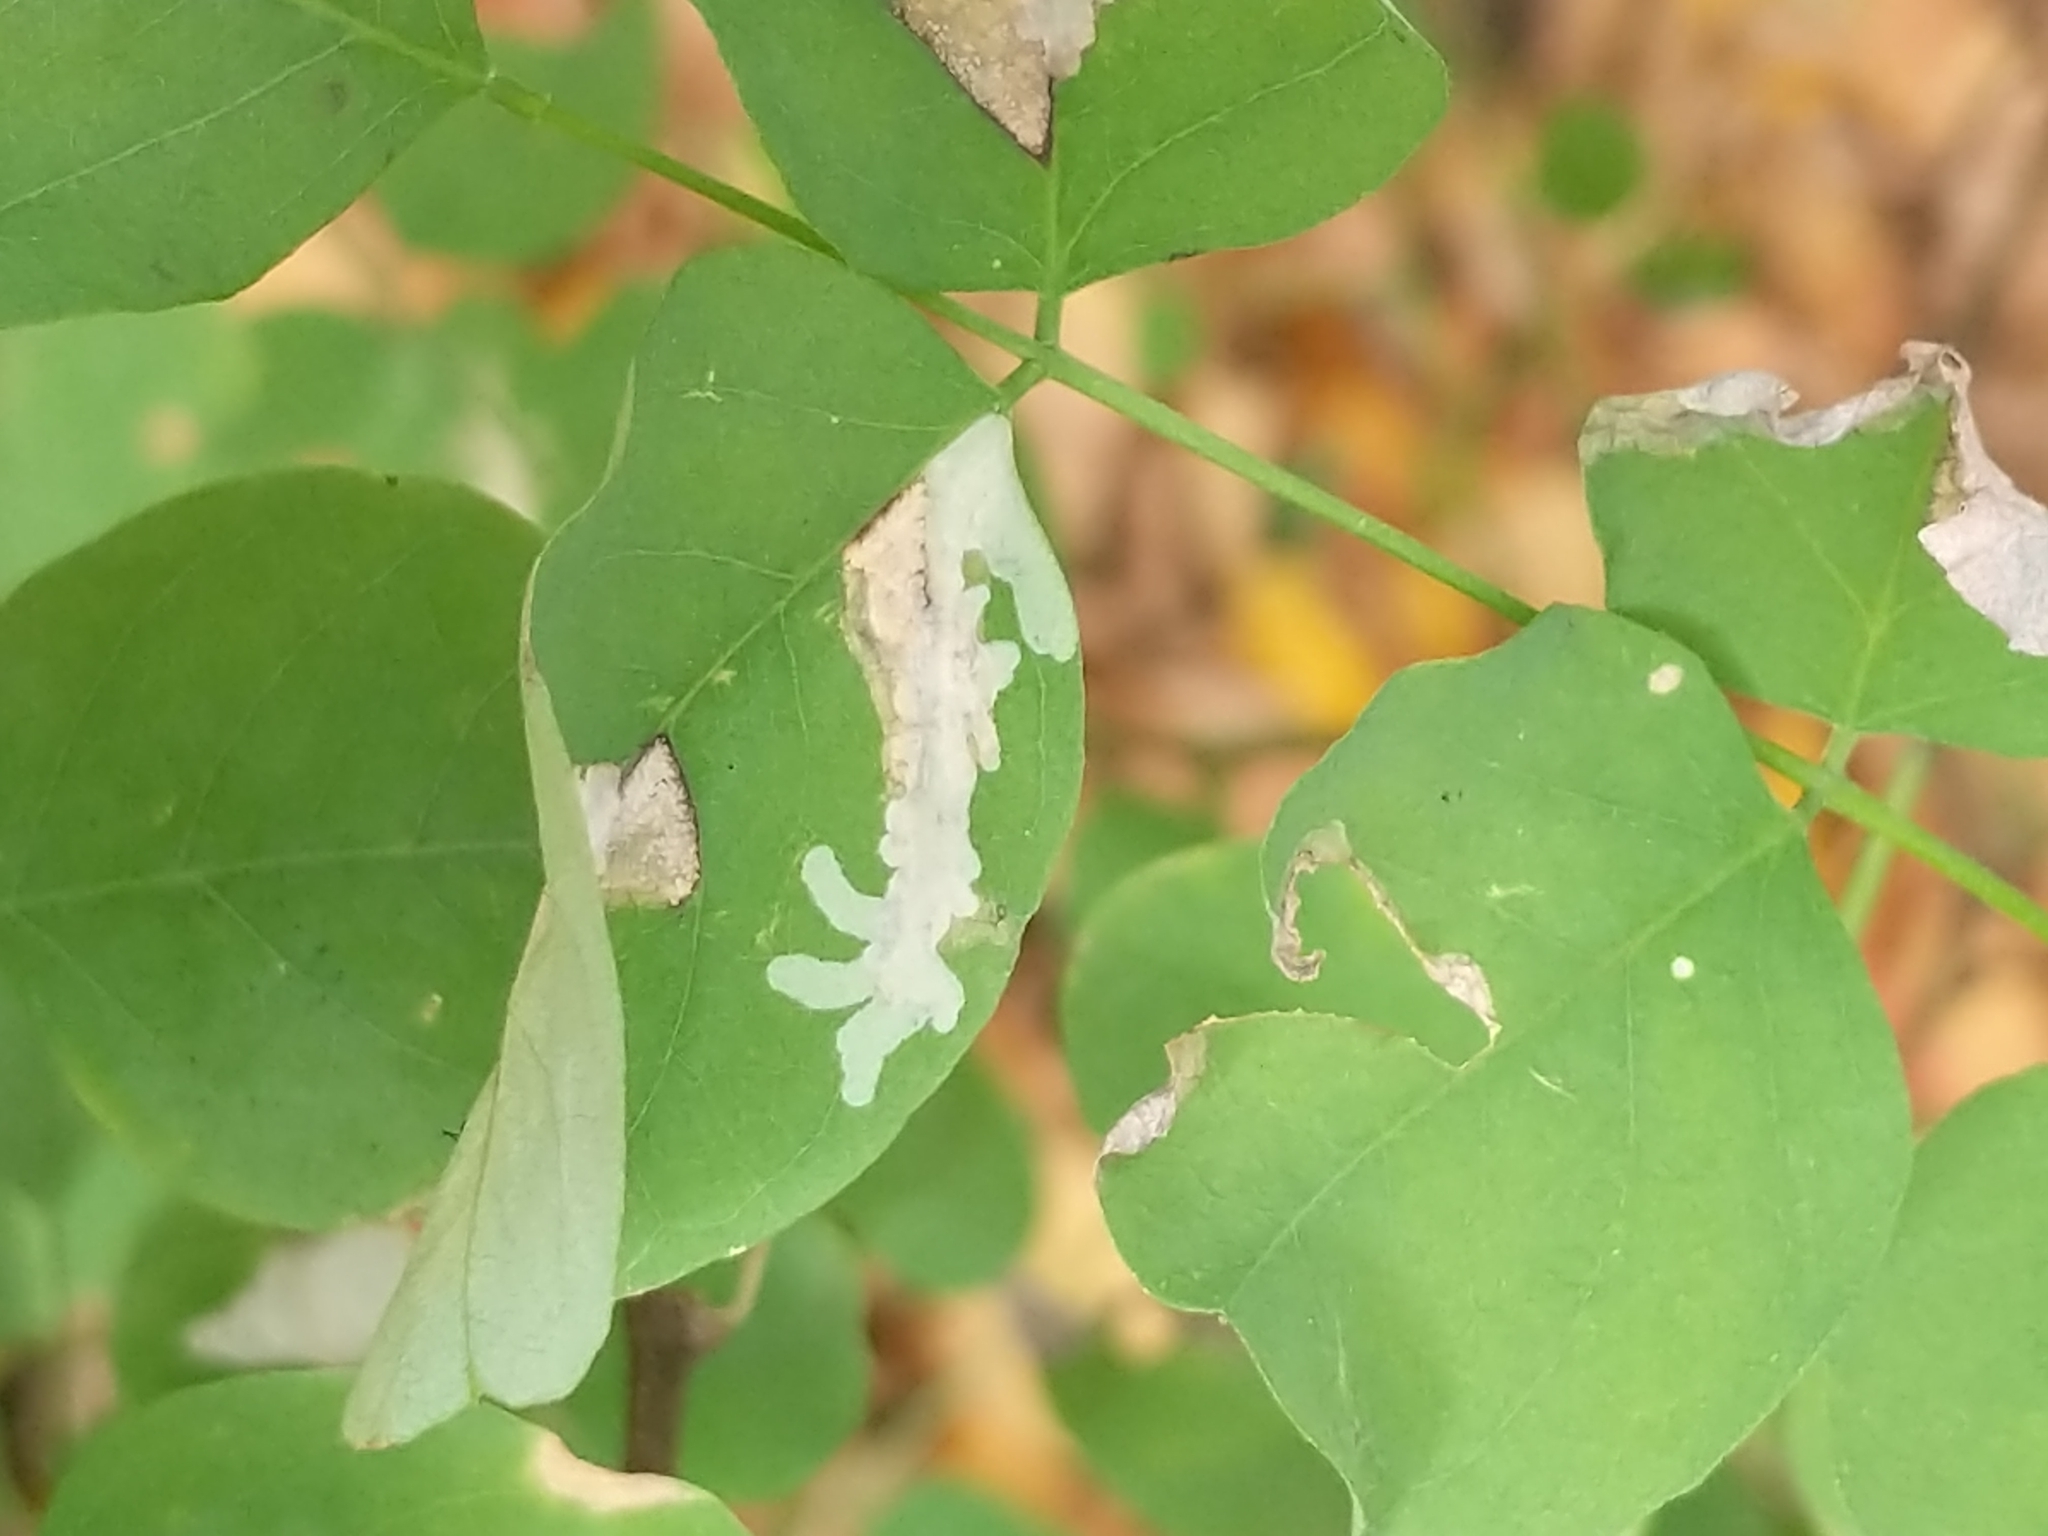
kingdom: Animalia
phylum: Arthropoda
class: Insecta
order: Lepidoptera
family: Gracillariidae
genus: Parectopa
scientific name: Parectopa robiniella
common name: Locust digitate leafminer
